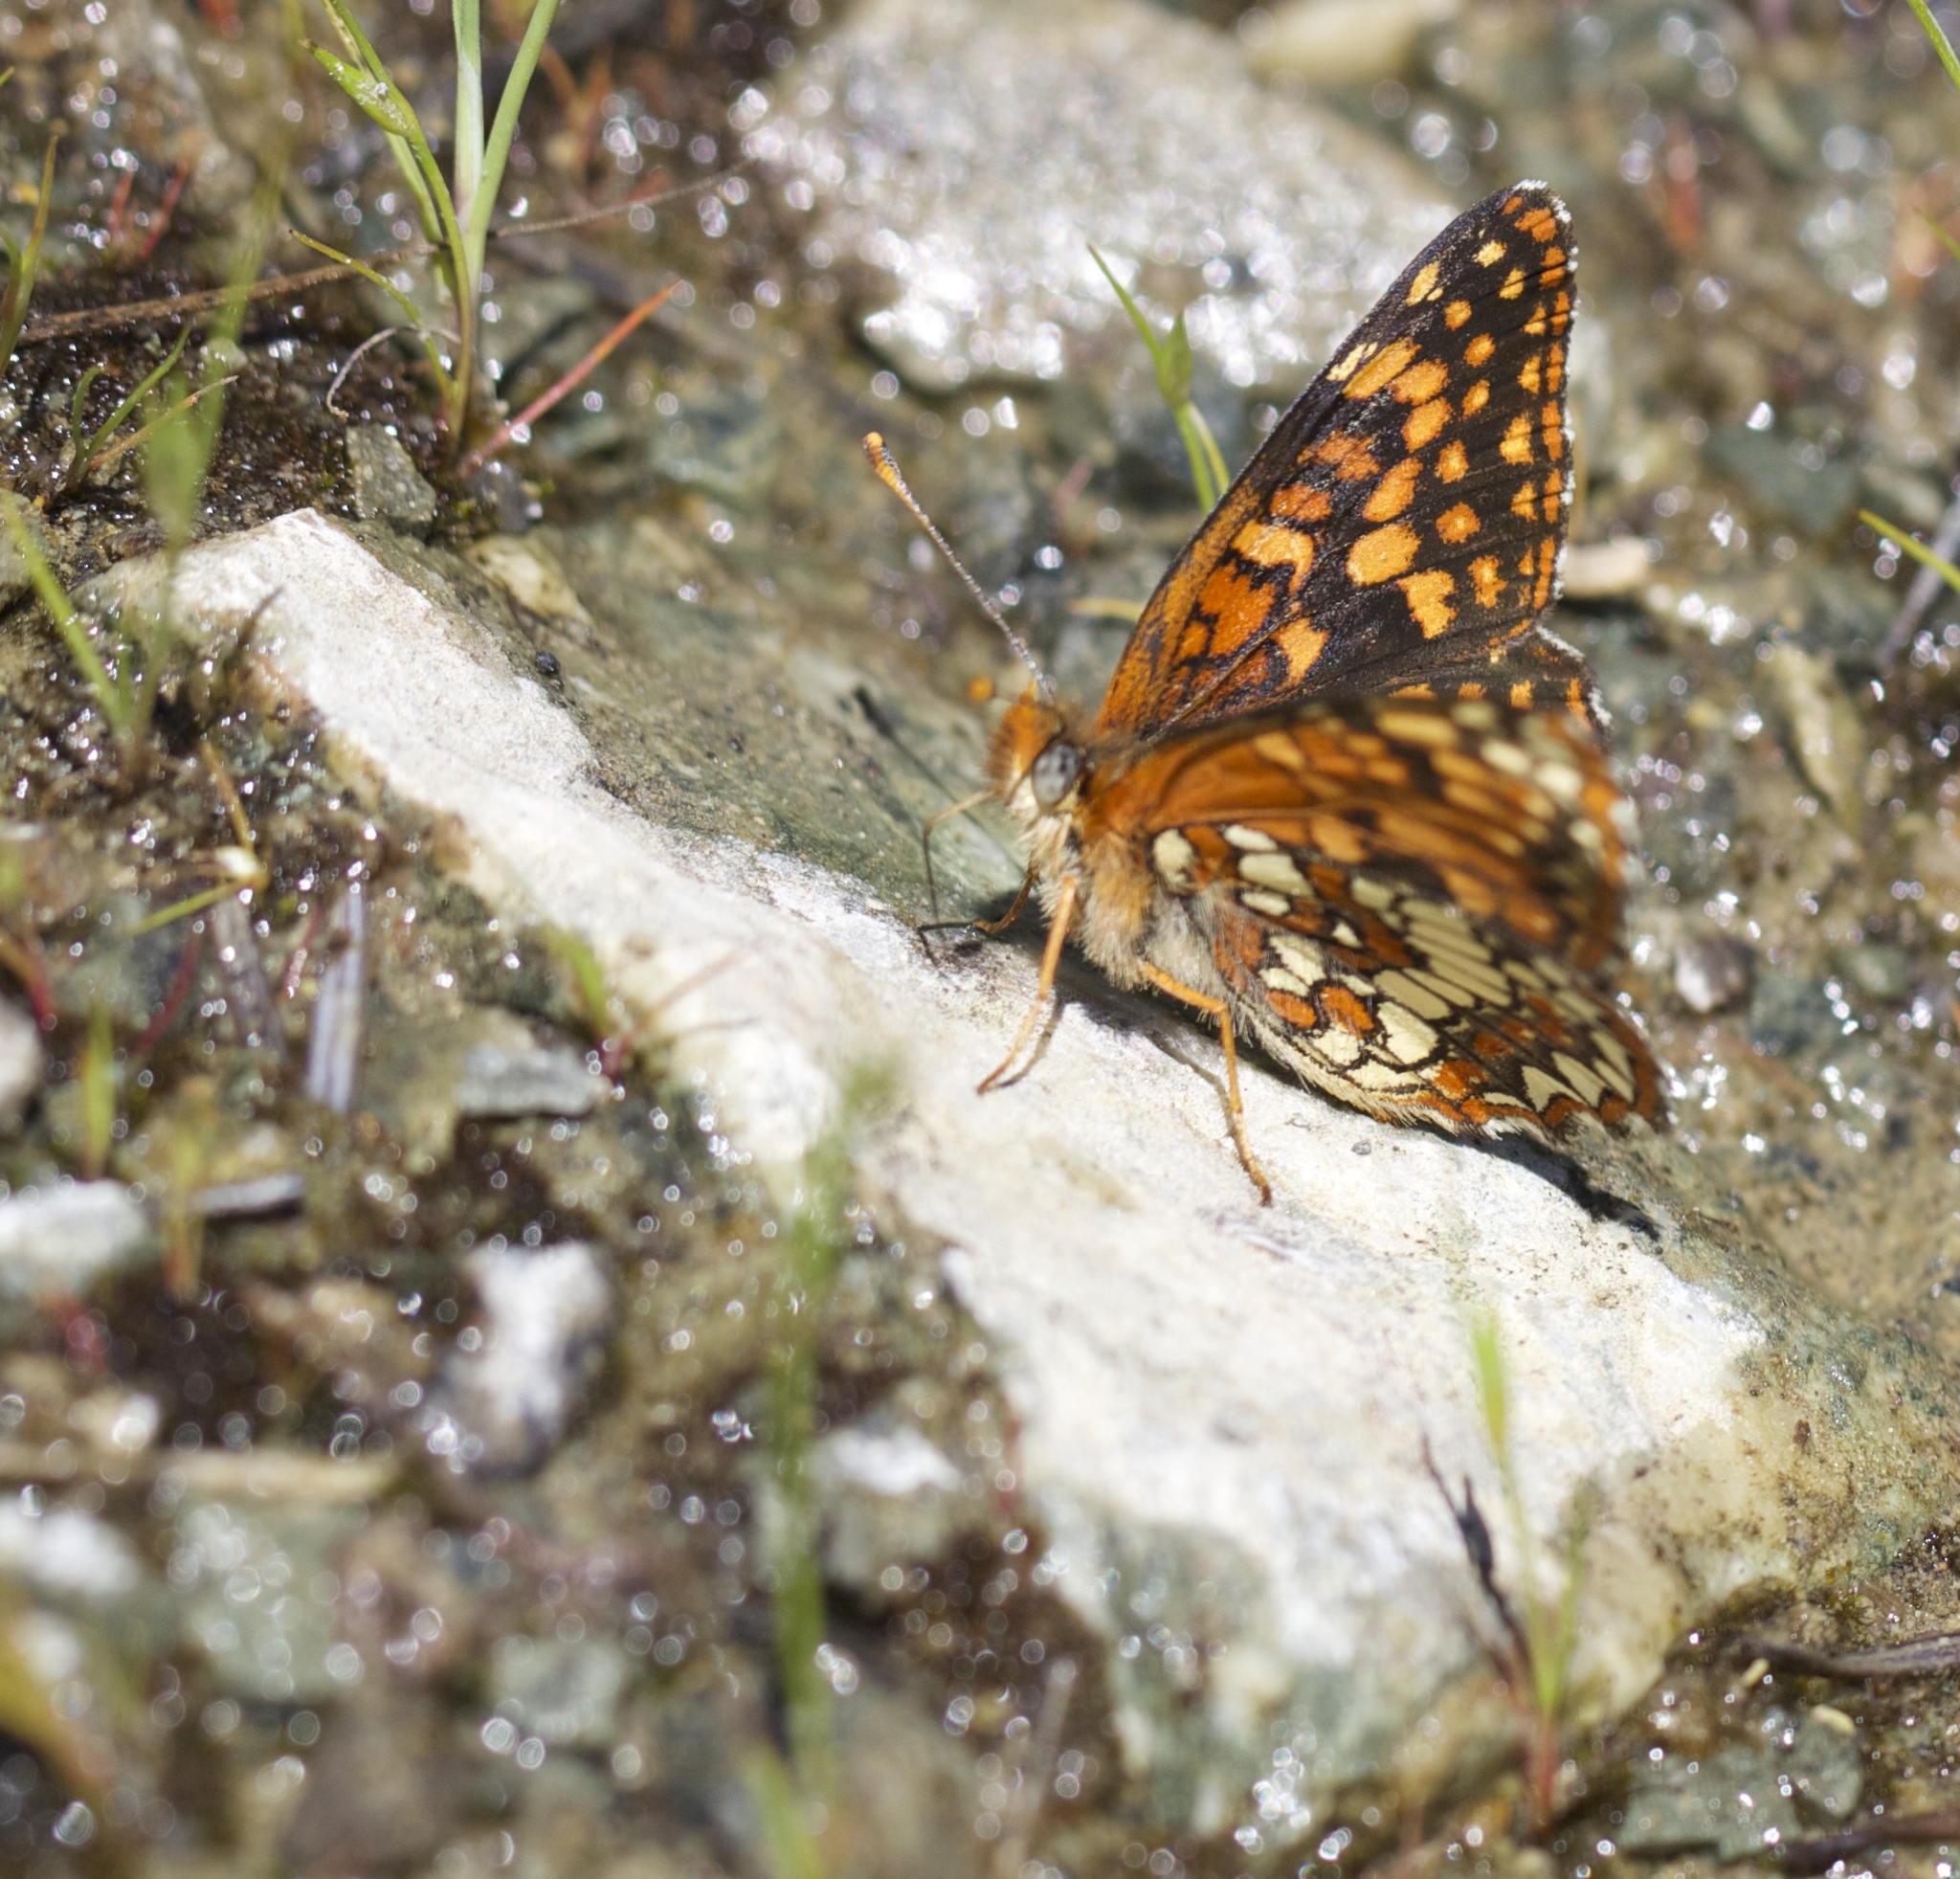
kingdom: Animalia
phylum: Arthropoda
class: Insecta
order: Lepidoptera
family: Nymphalidae
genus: Chlosyne
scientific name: Chlosyne palla
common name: Northern checkerspot
